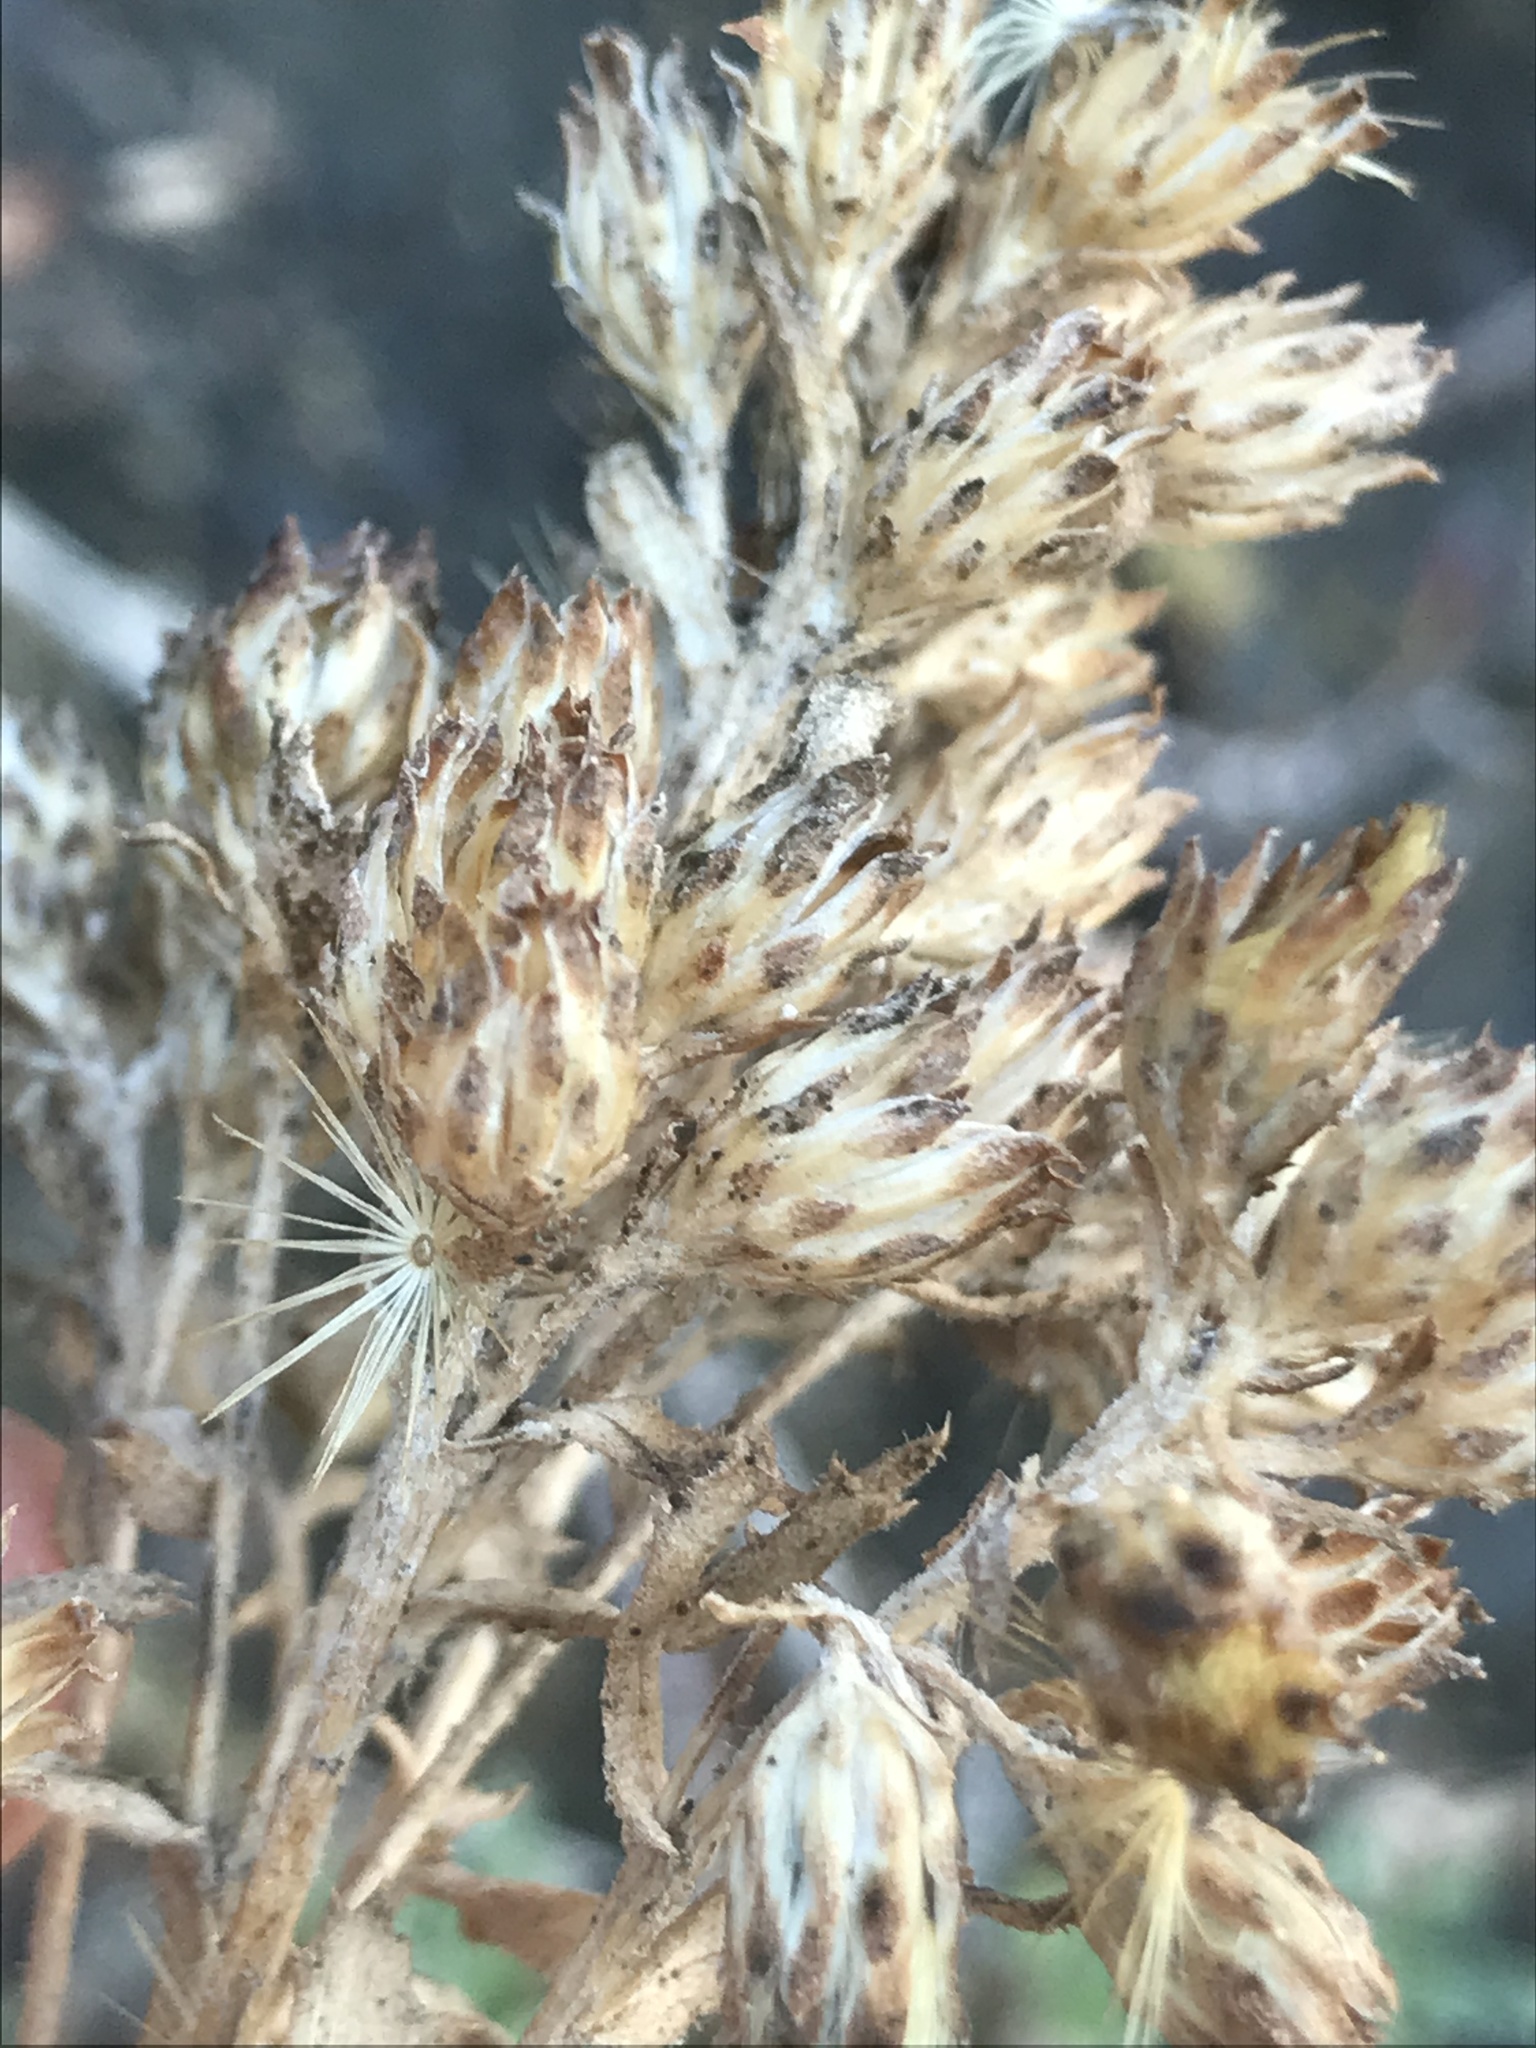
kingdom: Plantae
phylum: Tracheophyta
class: Magnoliopsida
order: Asterales
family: Asteraceae
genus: Isocoma
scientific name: Isocoma menziesii
